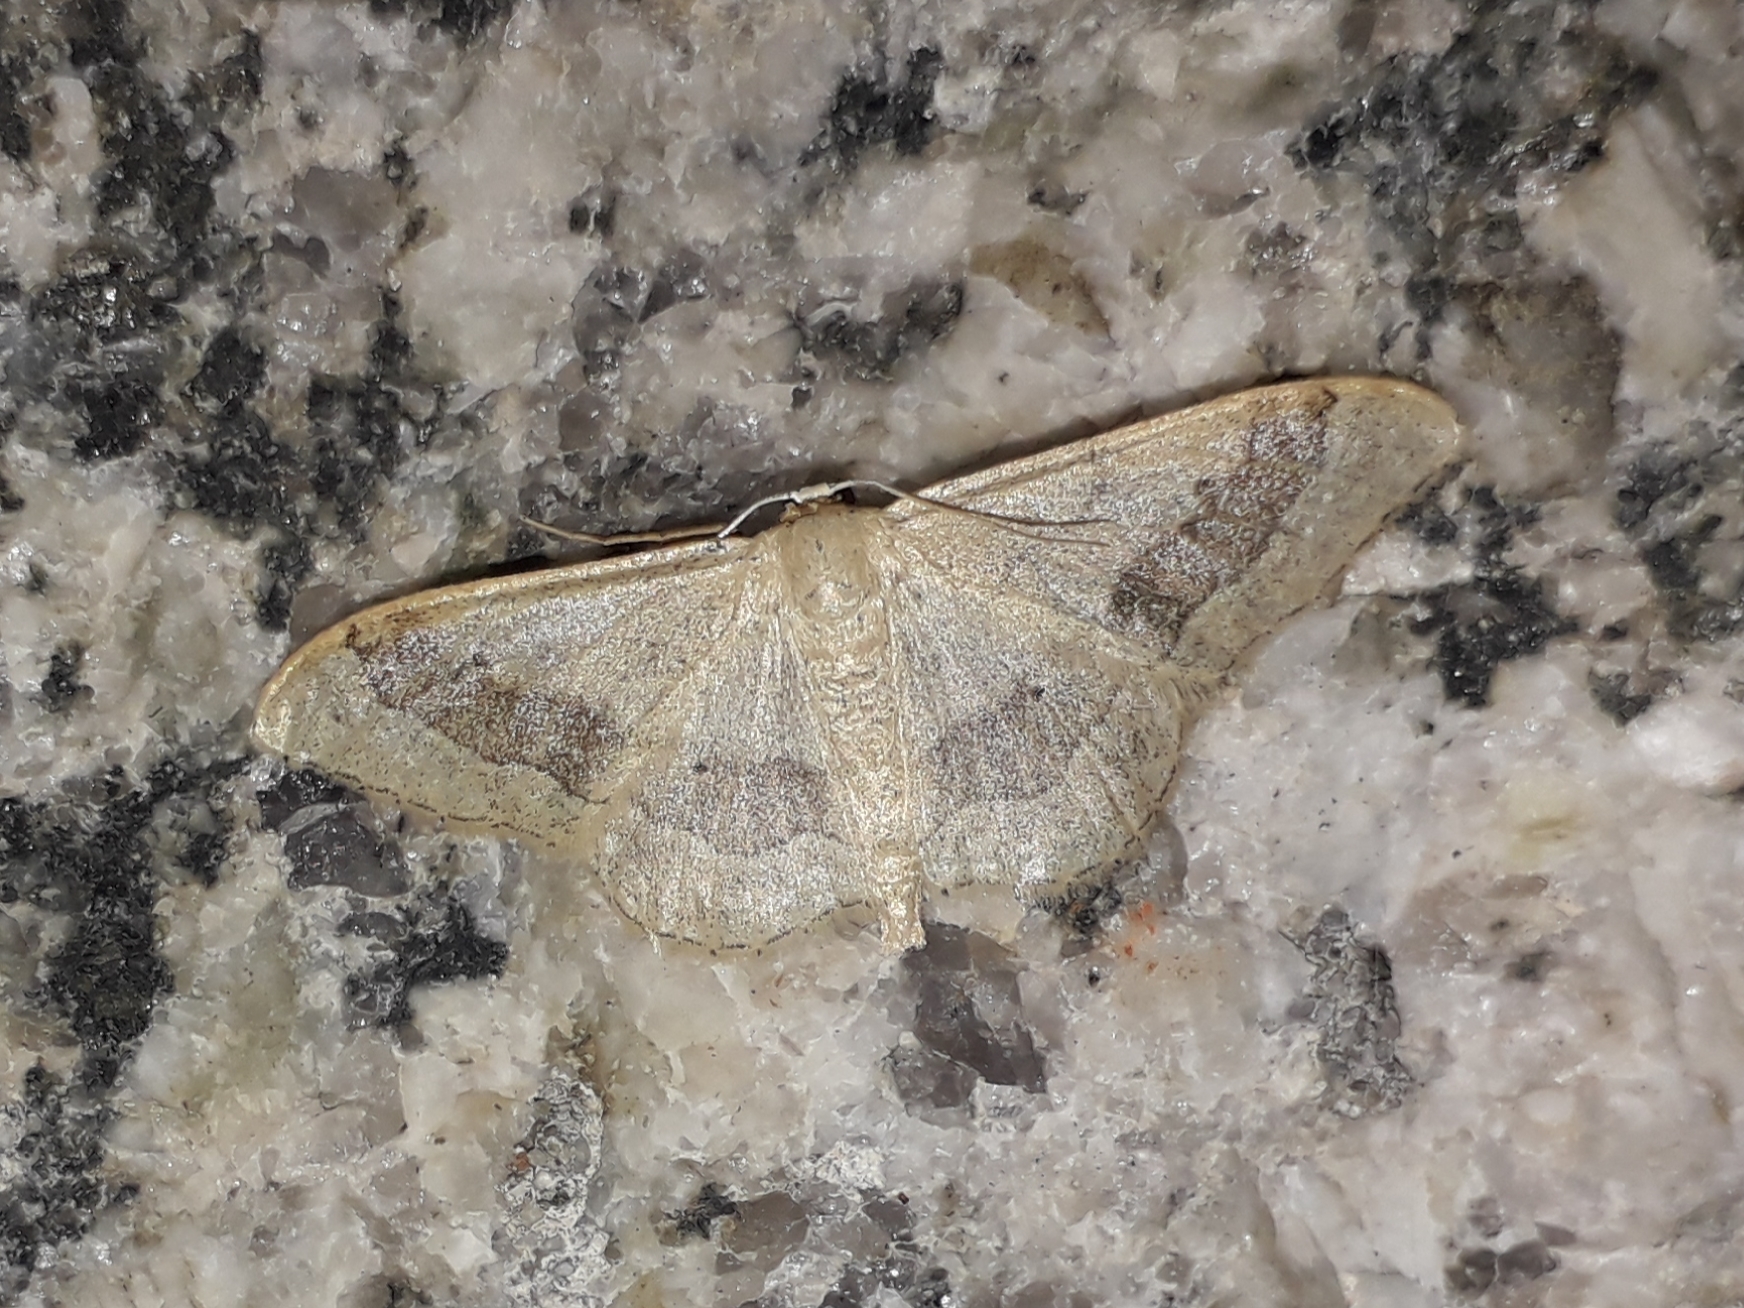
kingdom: Animalia
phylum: Arthropoda
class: Insecta
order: Lepidoptera
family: Geometridae
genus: Idaea
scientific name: Idaea aversata
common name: Riband wave
